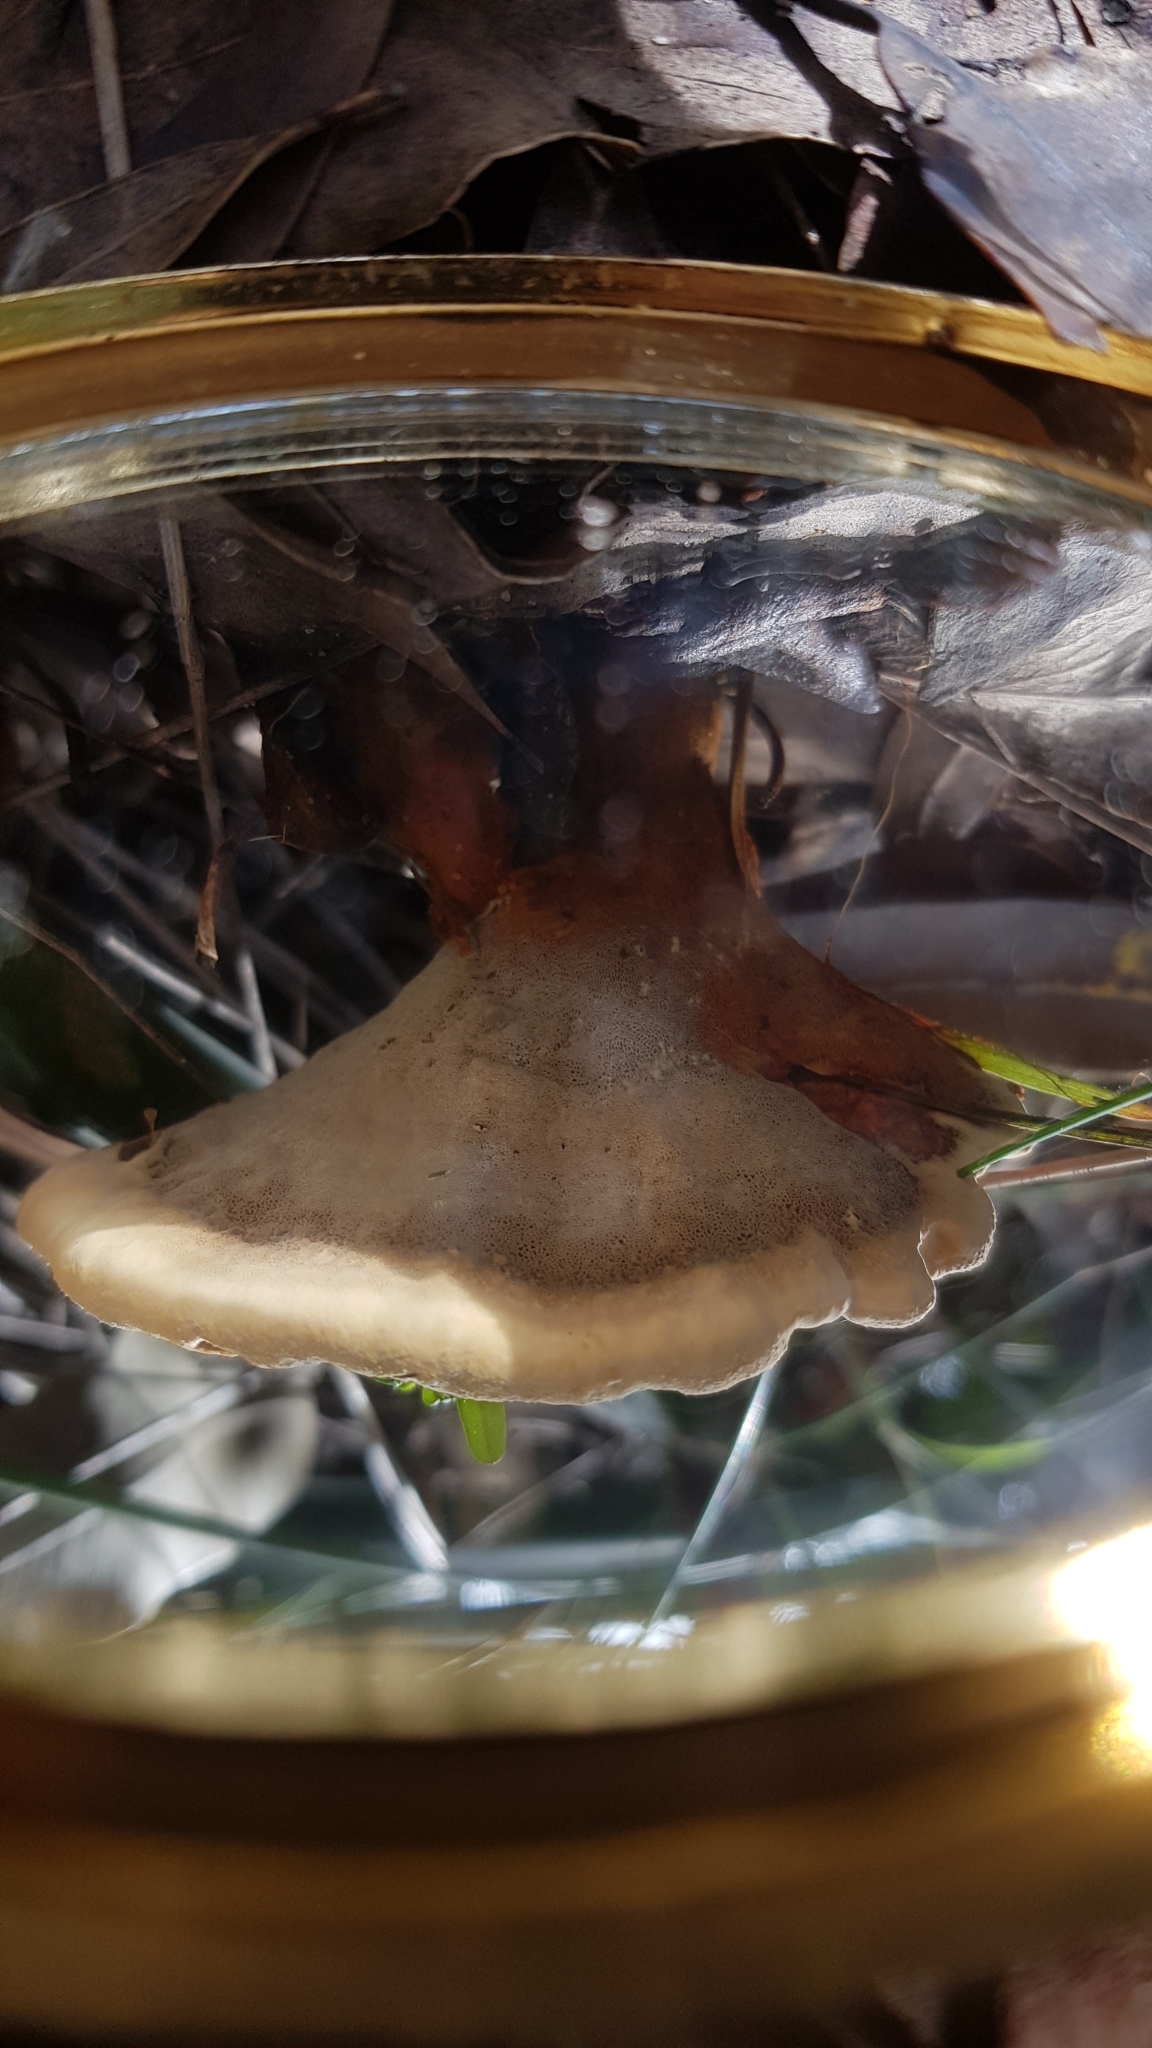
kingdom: Fungi
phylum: Basidiomycota
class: Agaricomycetes
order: Hymenochaetales
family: Hymenochaetaceae
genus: Inonotus
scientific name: Inonotus albertinii
